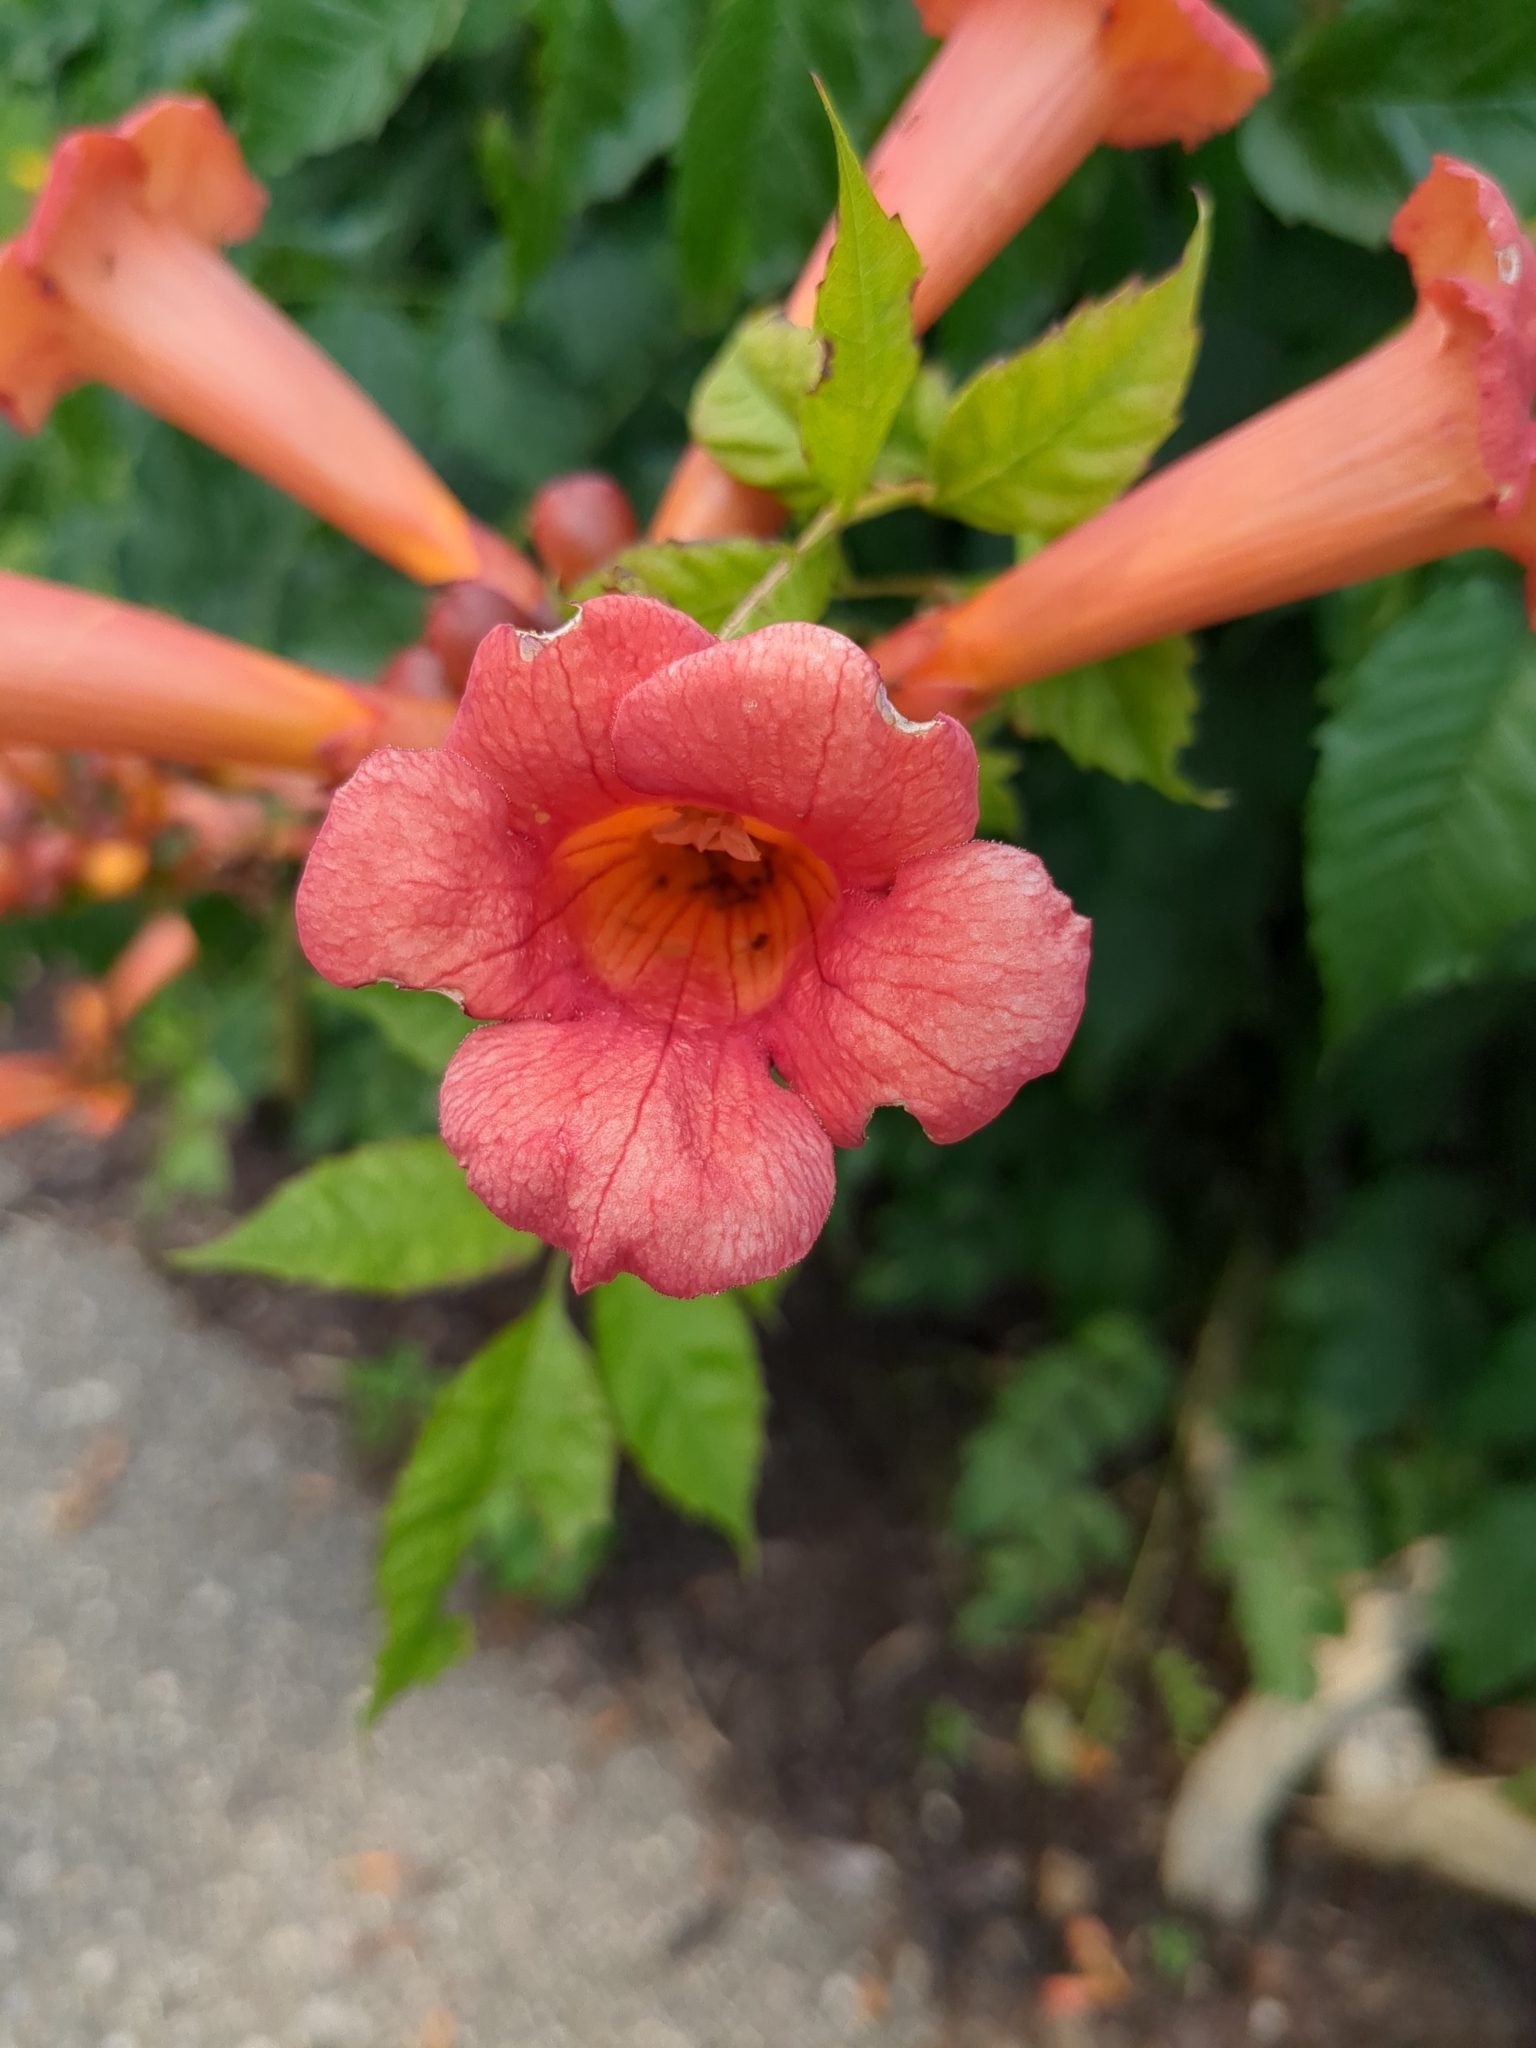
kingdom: Plantae
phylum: Tracheophyta
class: Magnoliopsida
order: Lamiales
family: Bignoniaceae
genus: Campsis
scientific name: Campsis radicans
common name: Trumpet-creeper
